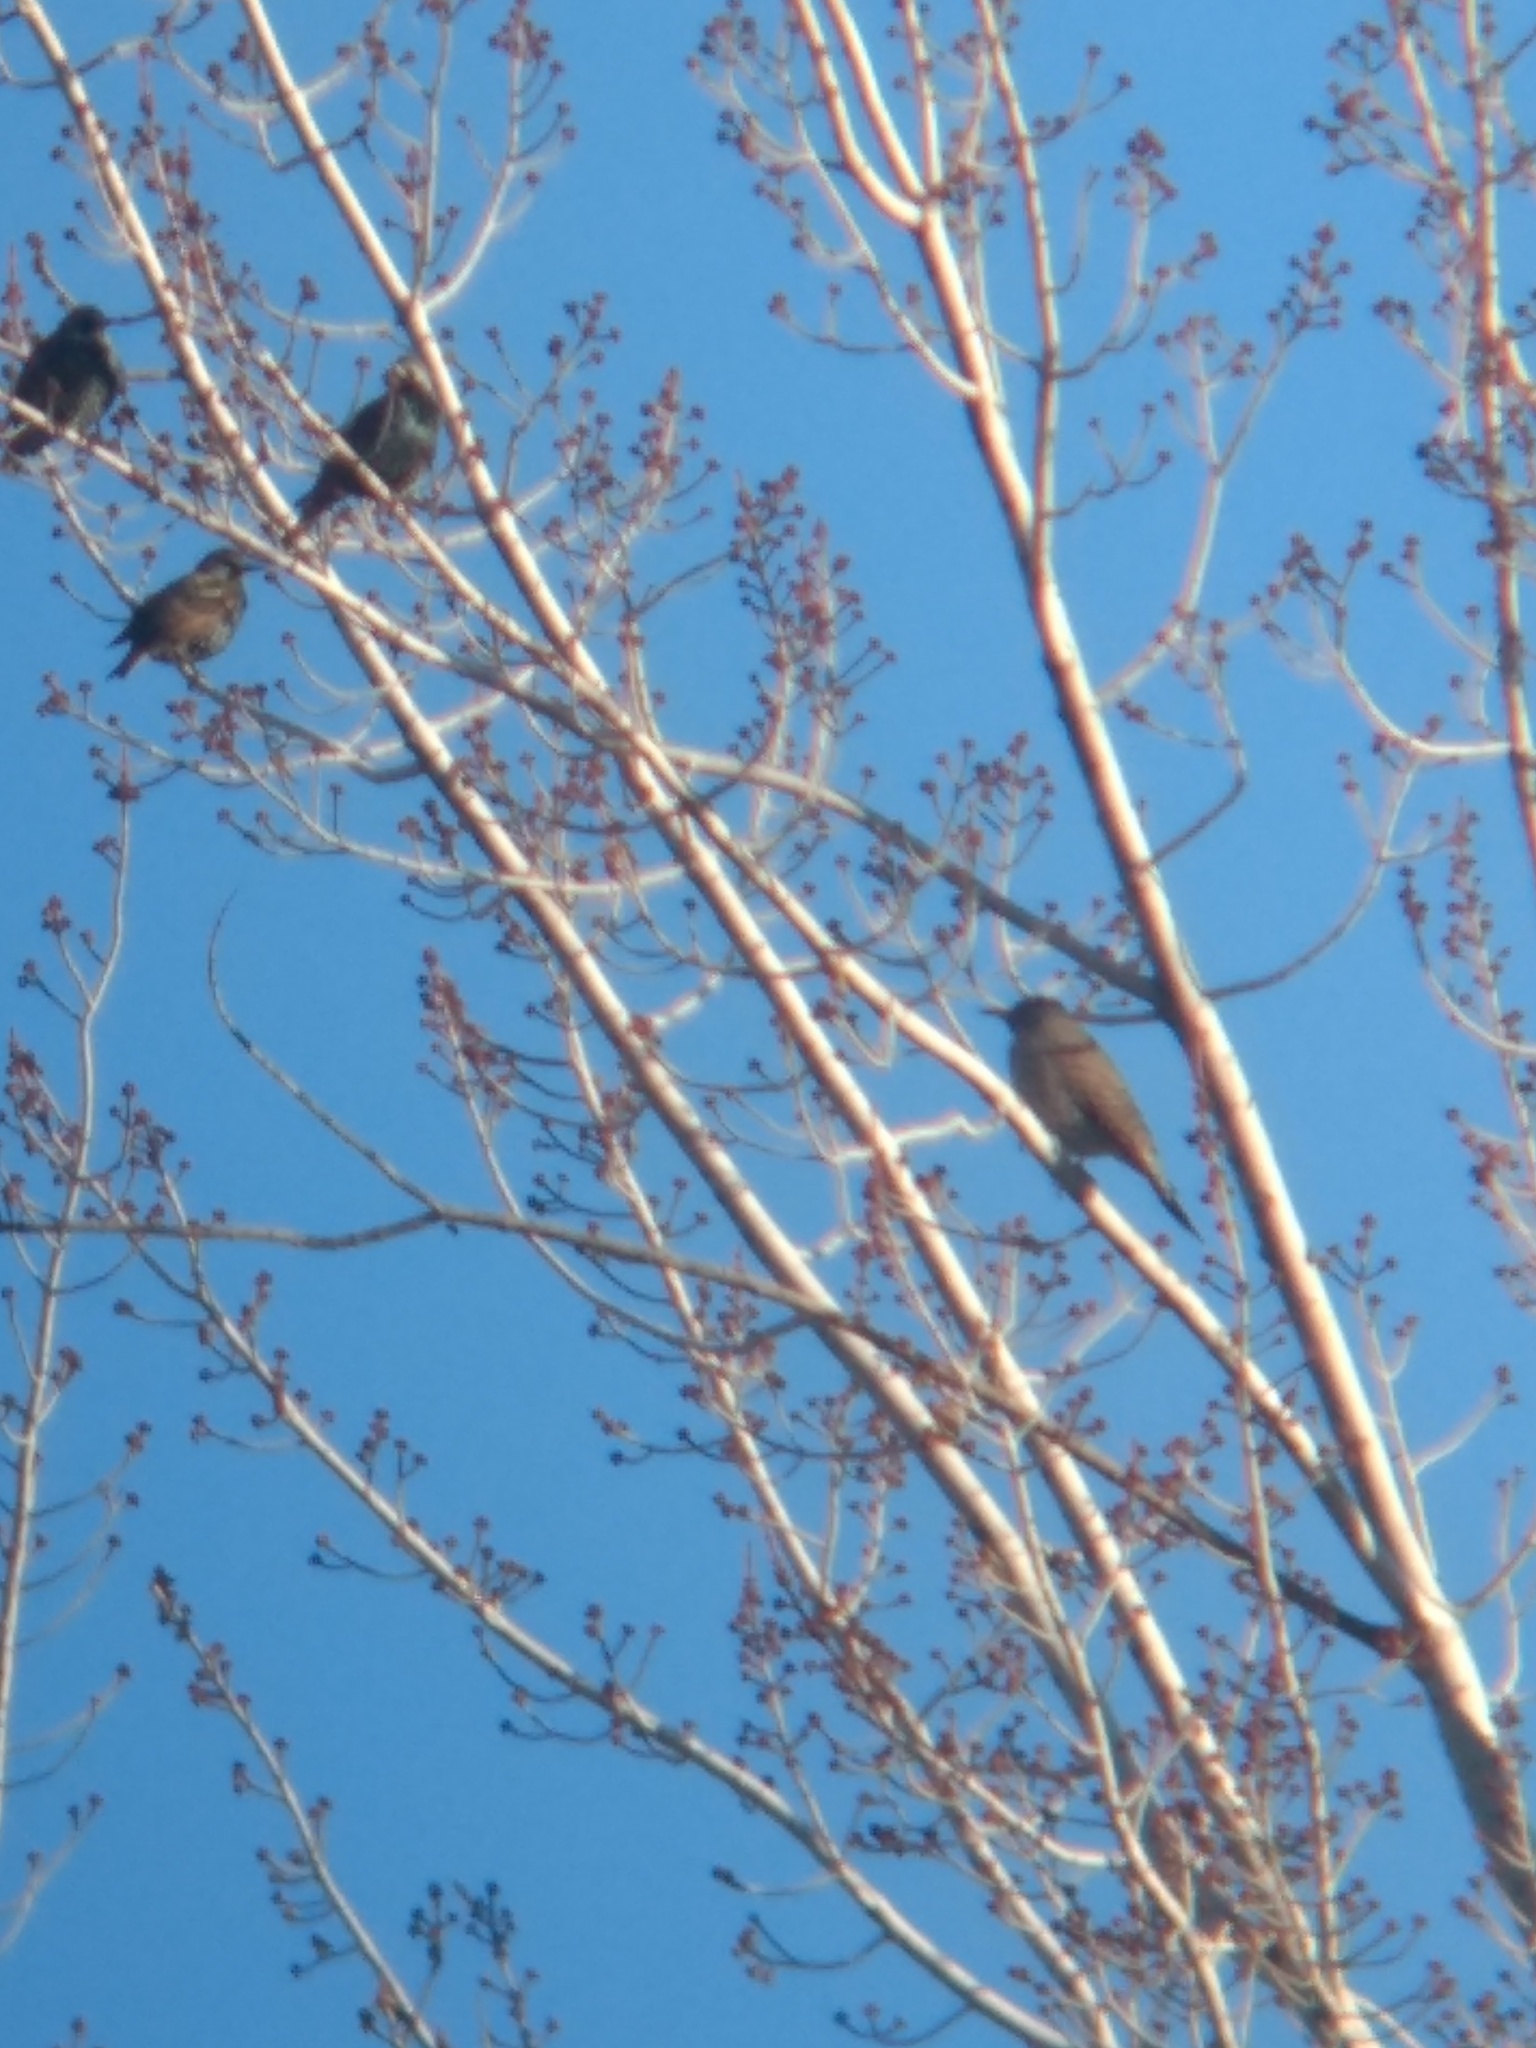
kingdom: Animalia
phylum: Chordata
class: Aves
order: Passeriformes
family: Sturnidae
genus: Sturnus
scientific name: Sturnus vulgaris
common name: Common starling
